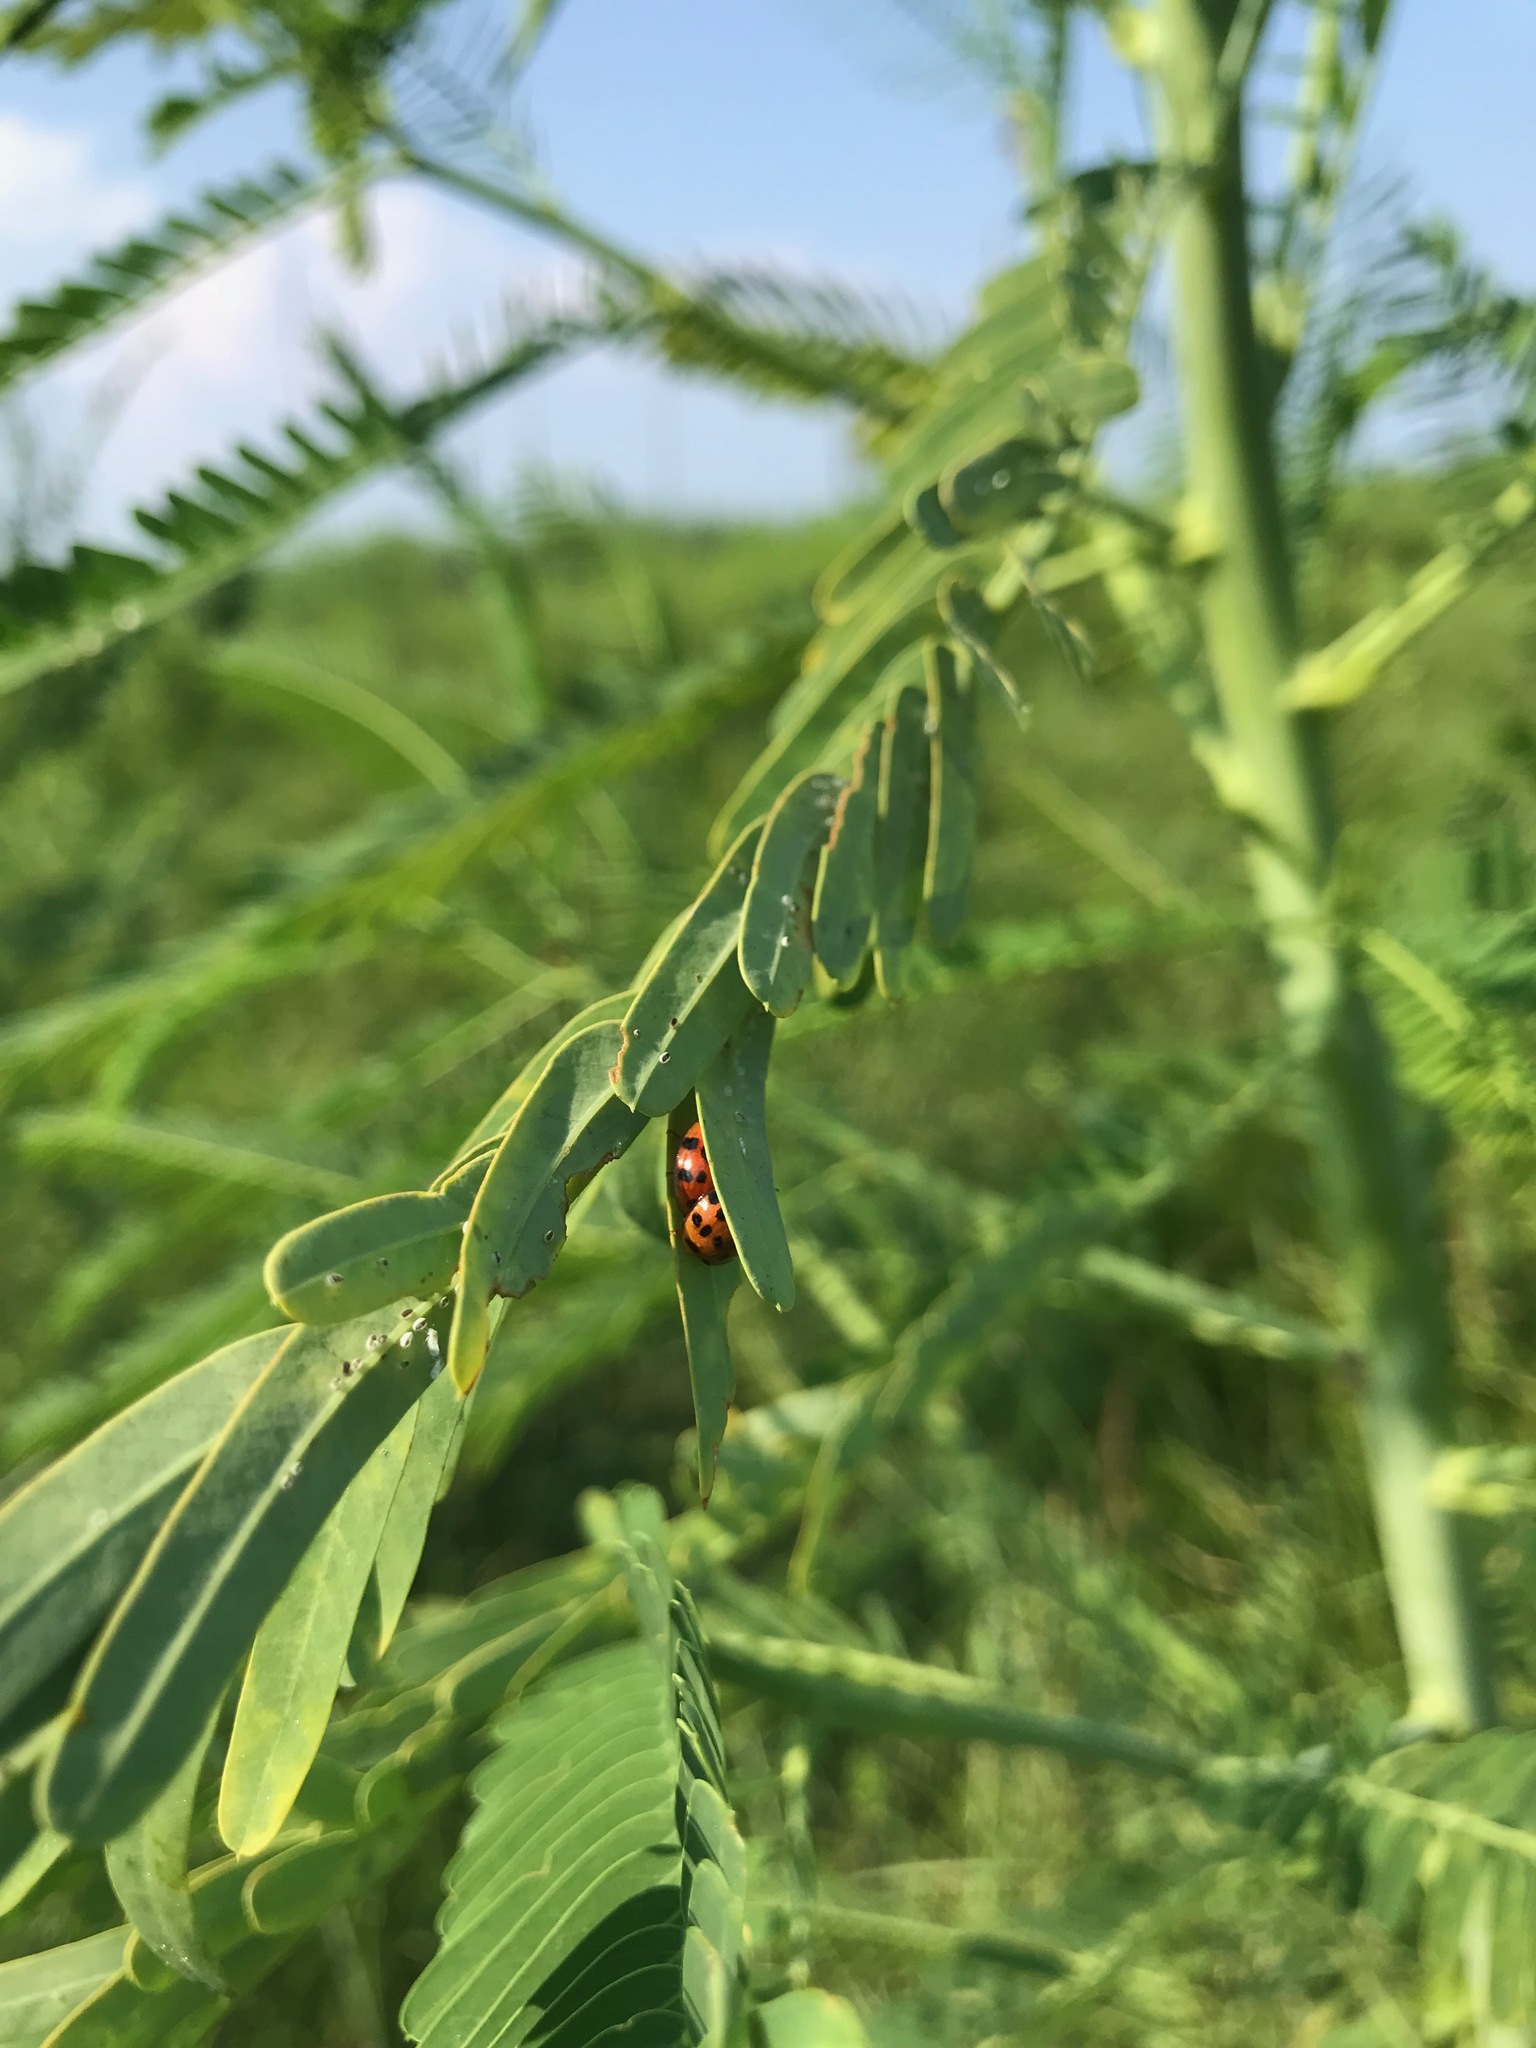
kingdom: Animalia
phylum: Arthropoda
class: Insecta
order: Coleoptera
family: Coccinellidae
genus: Harmonia
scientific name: Harmonia axyridis
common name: Harlequin ladybird
